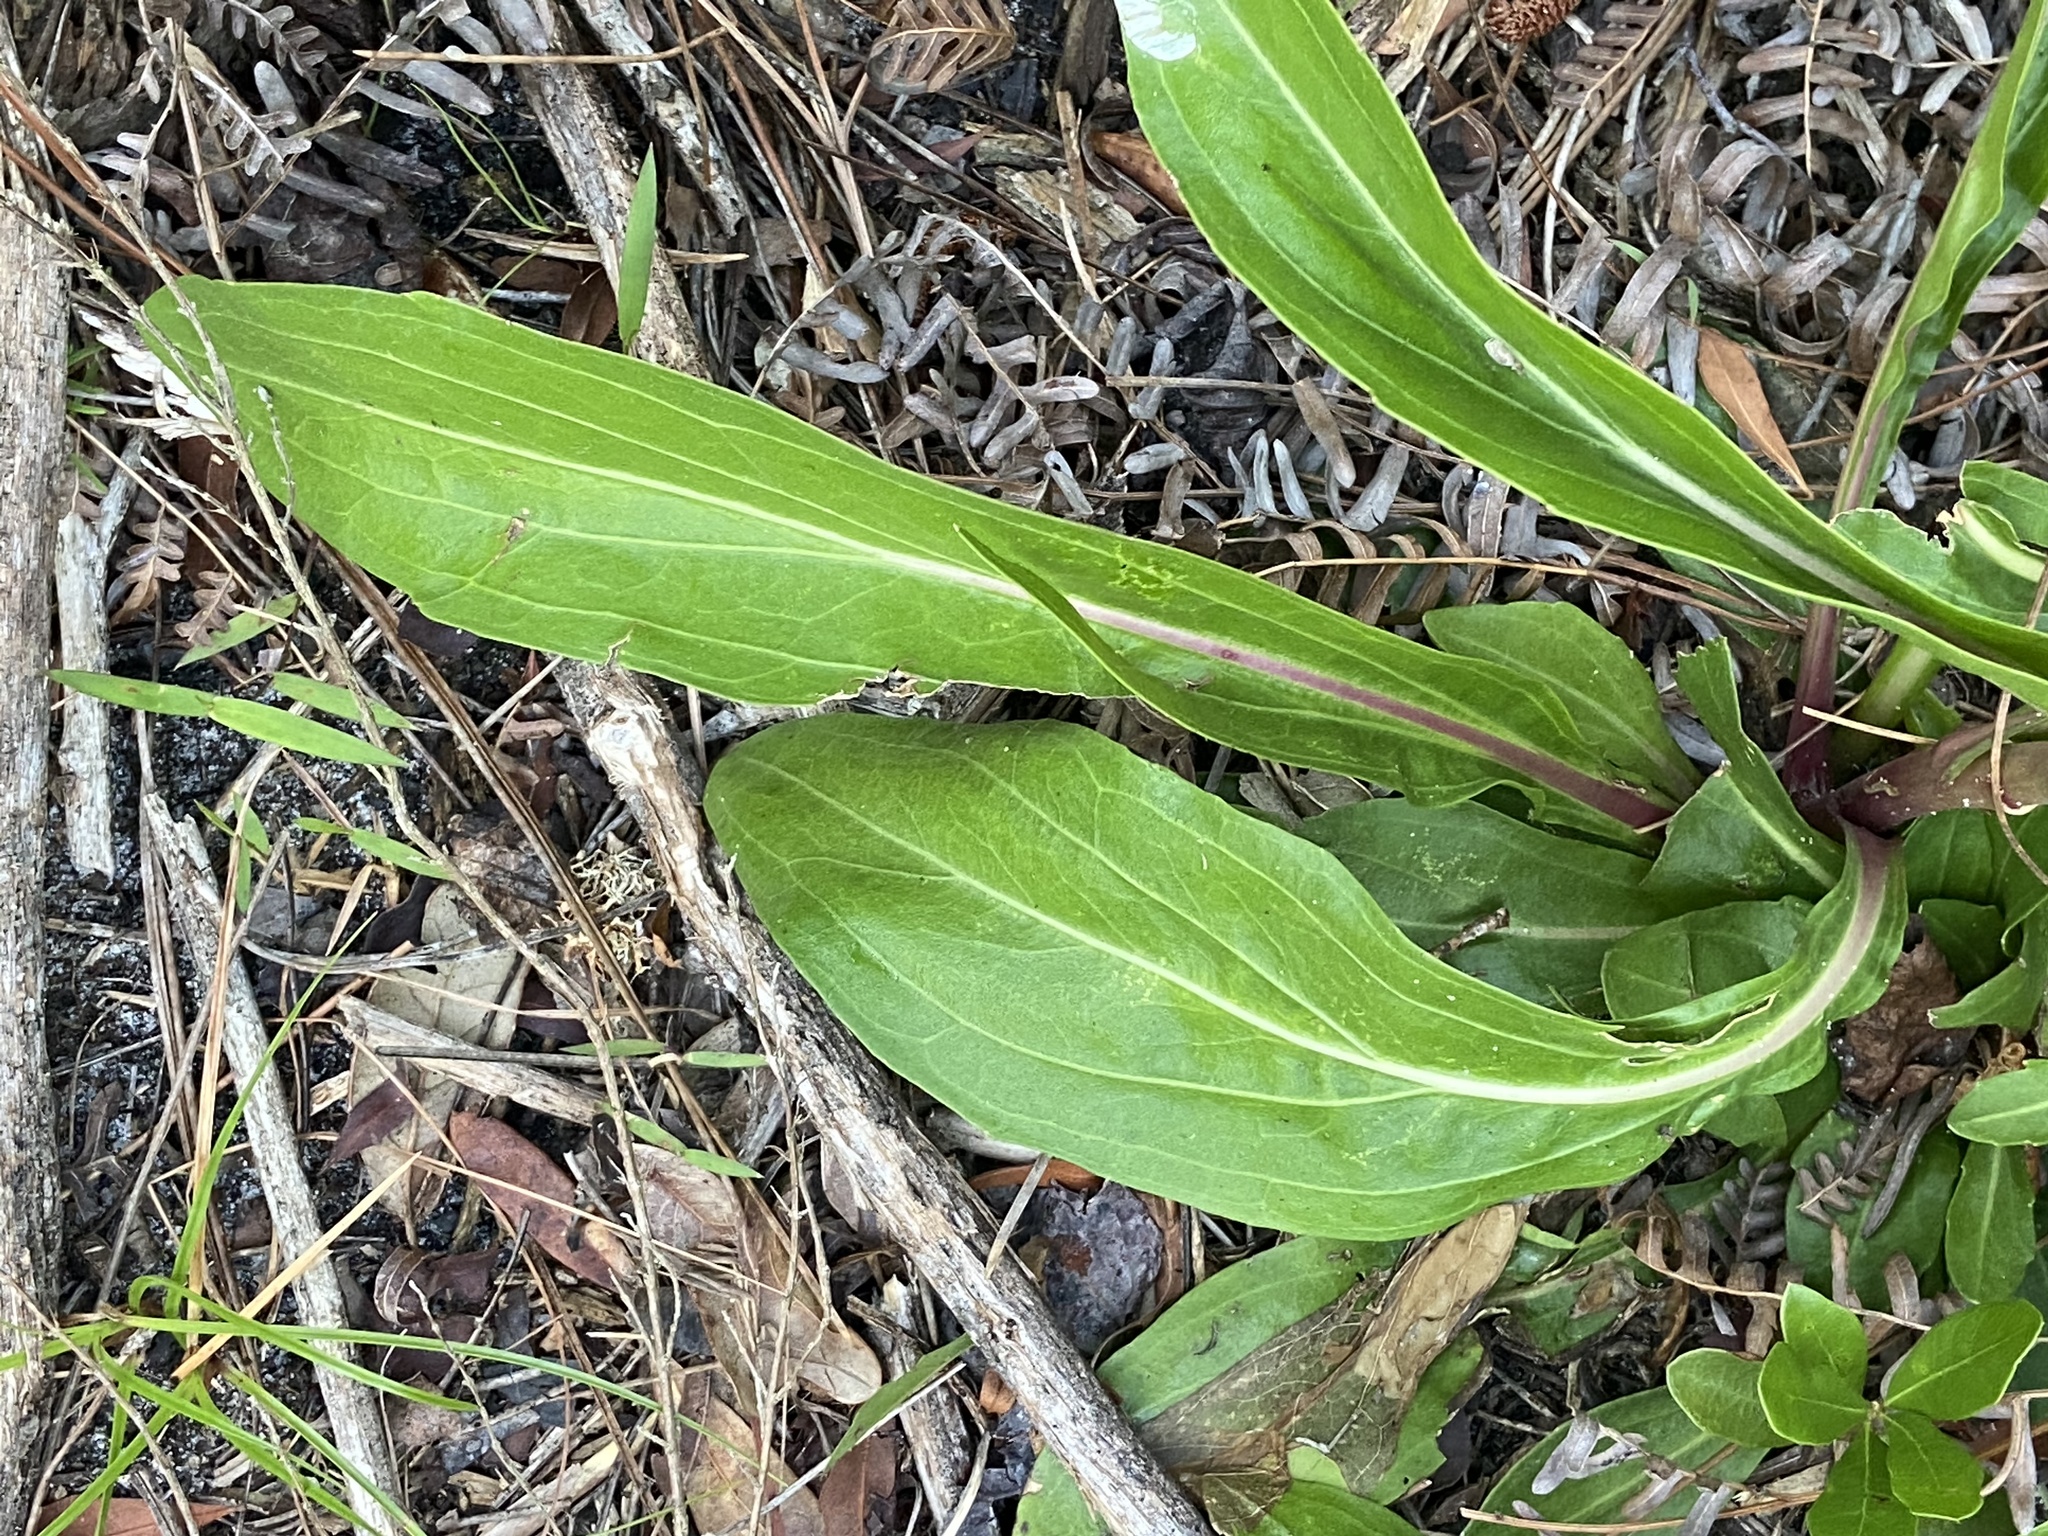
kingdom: Plantae
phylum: Tracheophyta
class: Magnoliopsida
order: Asterales
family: Asteraceae
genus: Carphephorus
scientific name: Carphephorus odoratissimus
